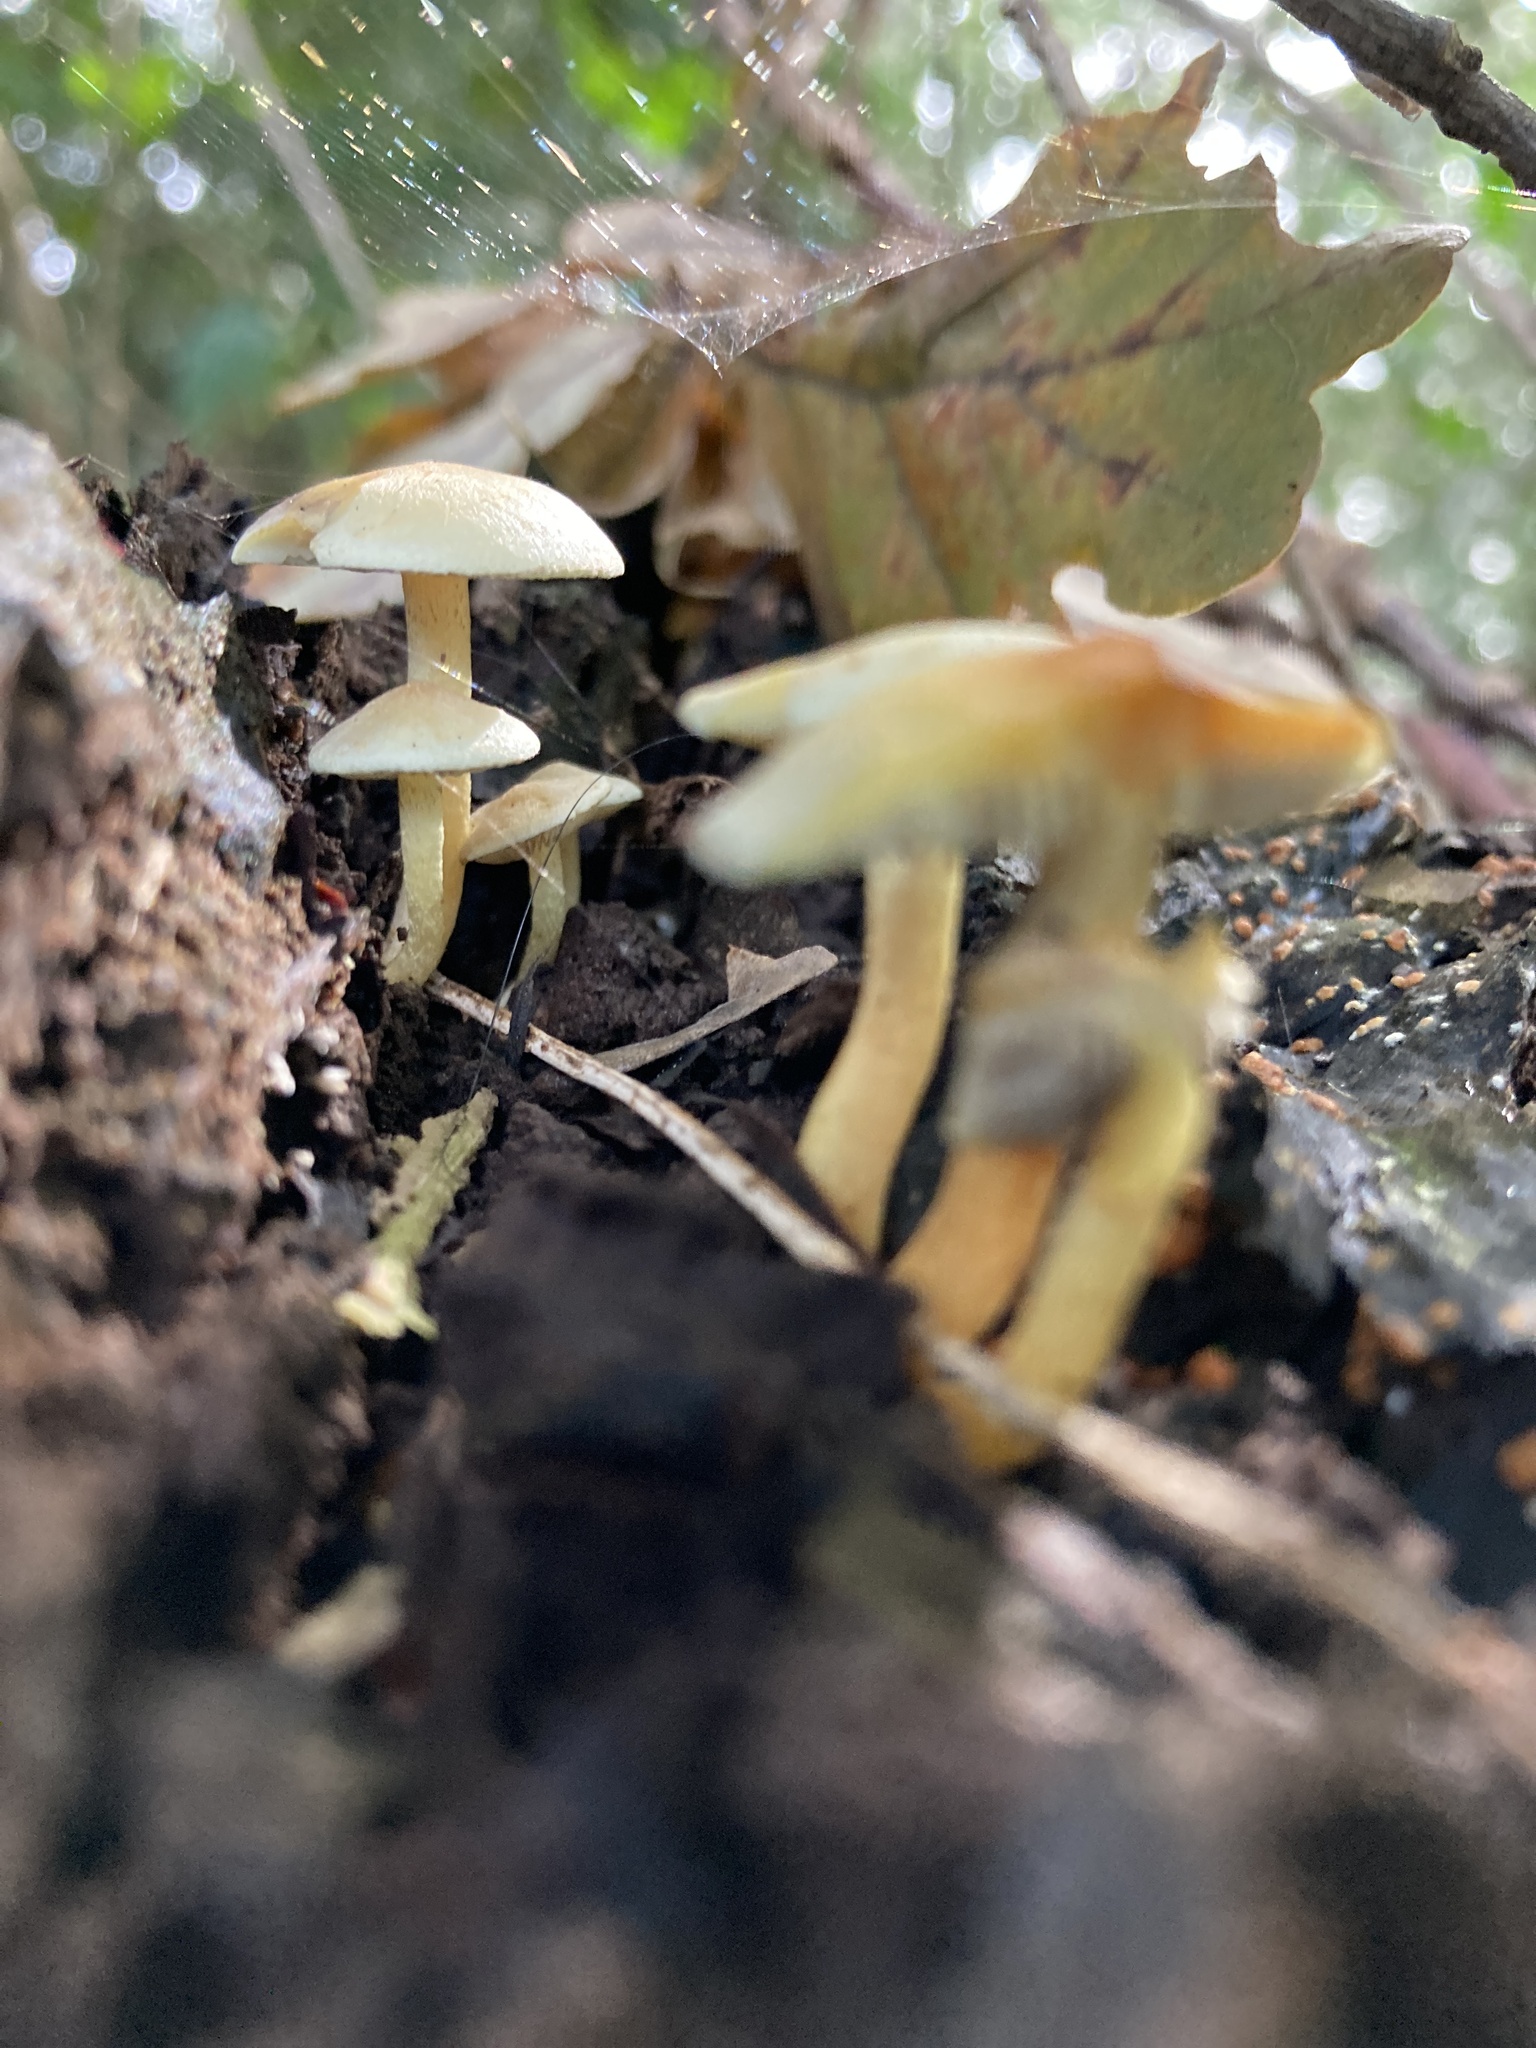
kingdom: Fungi
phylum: Basidiomycota
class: Agaricomycetes
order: Agaricales
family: Strophariaceae
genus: Hypholoma
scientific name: Hypholoma fasciculare
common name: Sulphur tuft
